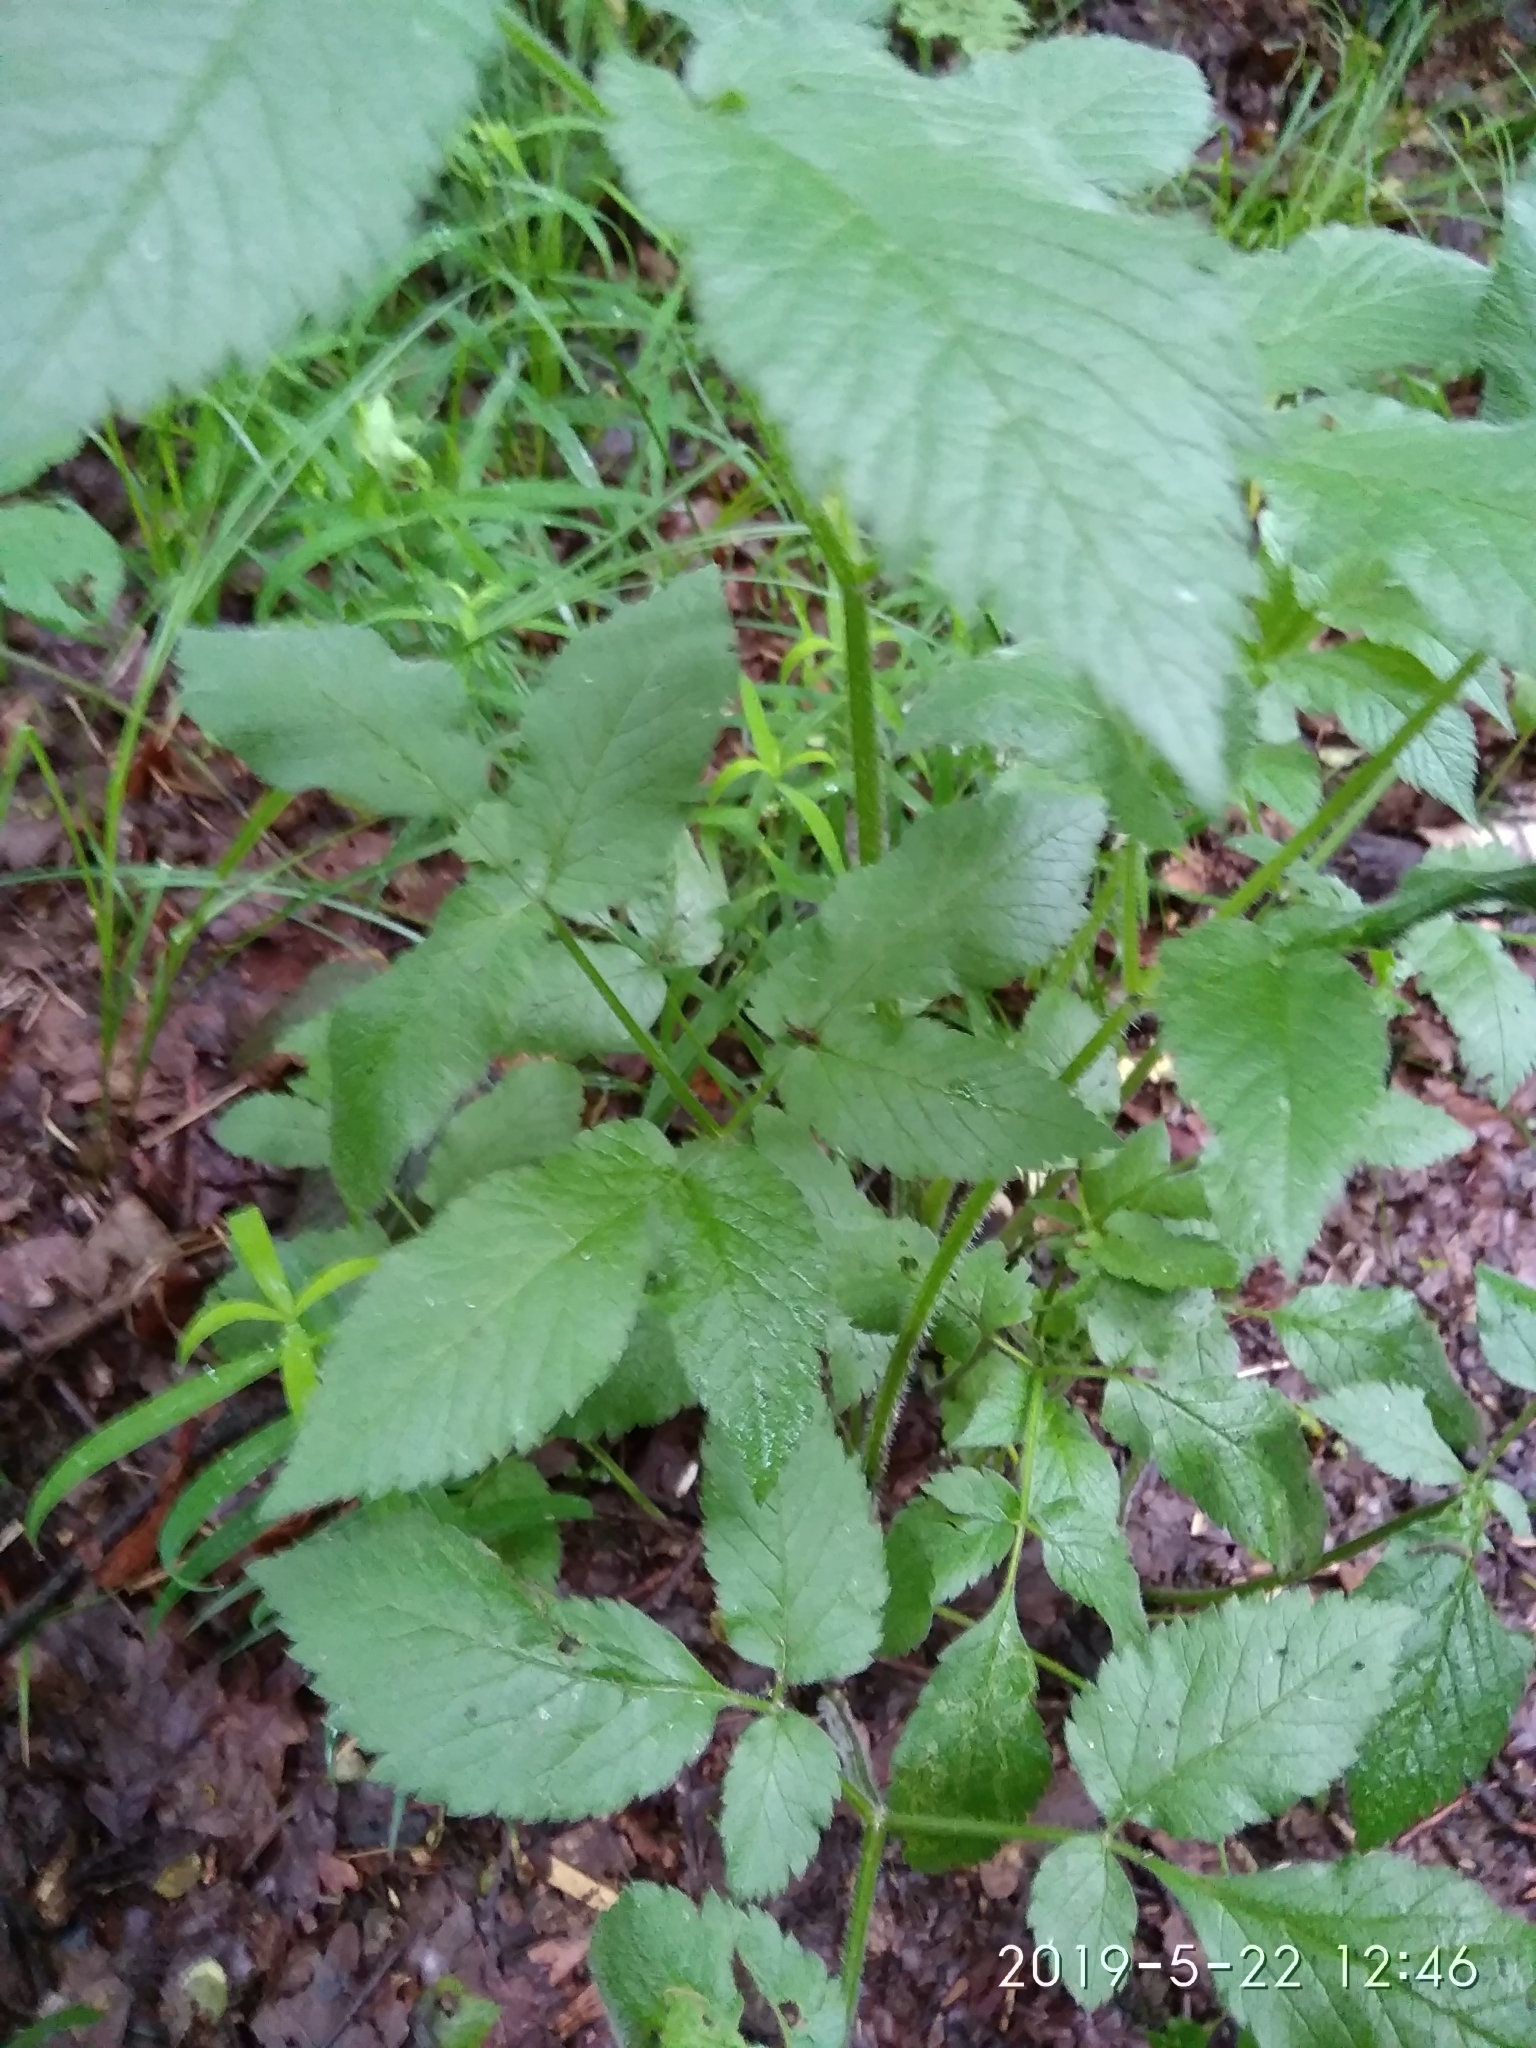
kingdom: Plantae
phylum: Tracheophyta
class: Magnoliopsida
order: Apiales
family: Apiaceae
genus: Chaerophyllum
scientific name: Chaerophyllum aromaticum
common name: Broadleaf chervil
